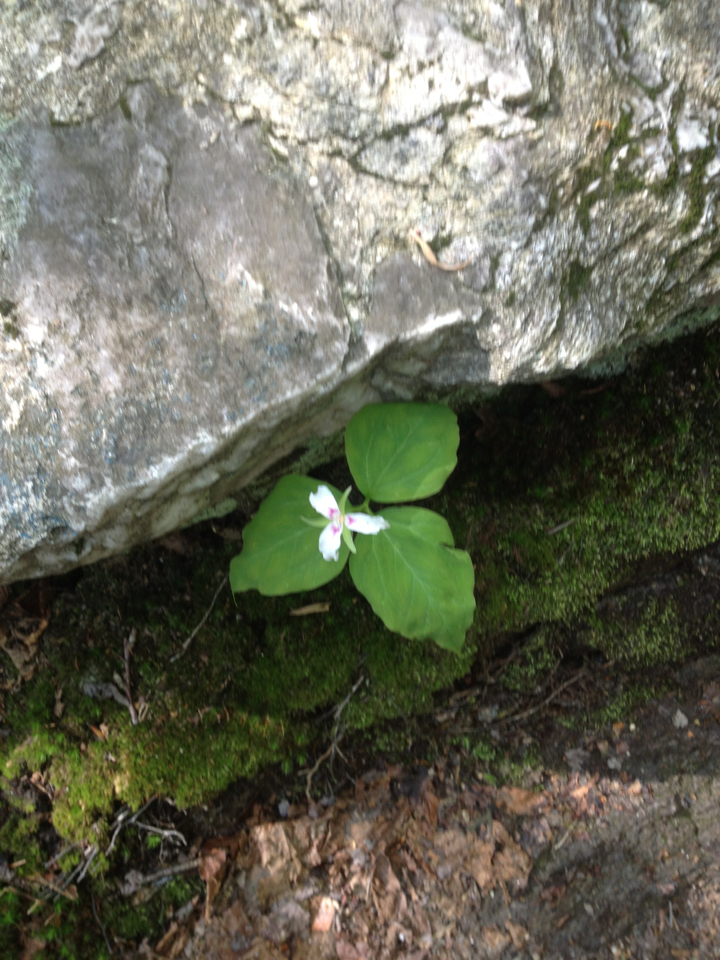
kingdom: Plantae
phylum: Tracheophyta
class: Liliopsida
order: Liliales
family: Melanthiaceae
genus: Trillium
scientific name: Trillium undulatum
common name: Paint trillium
